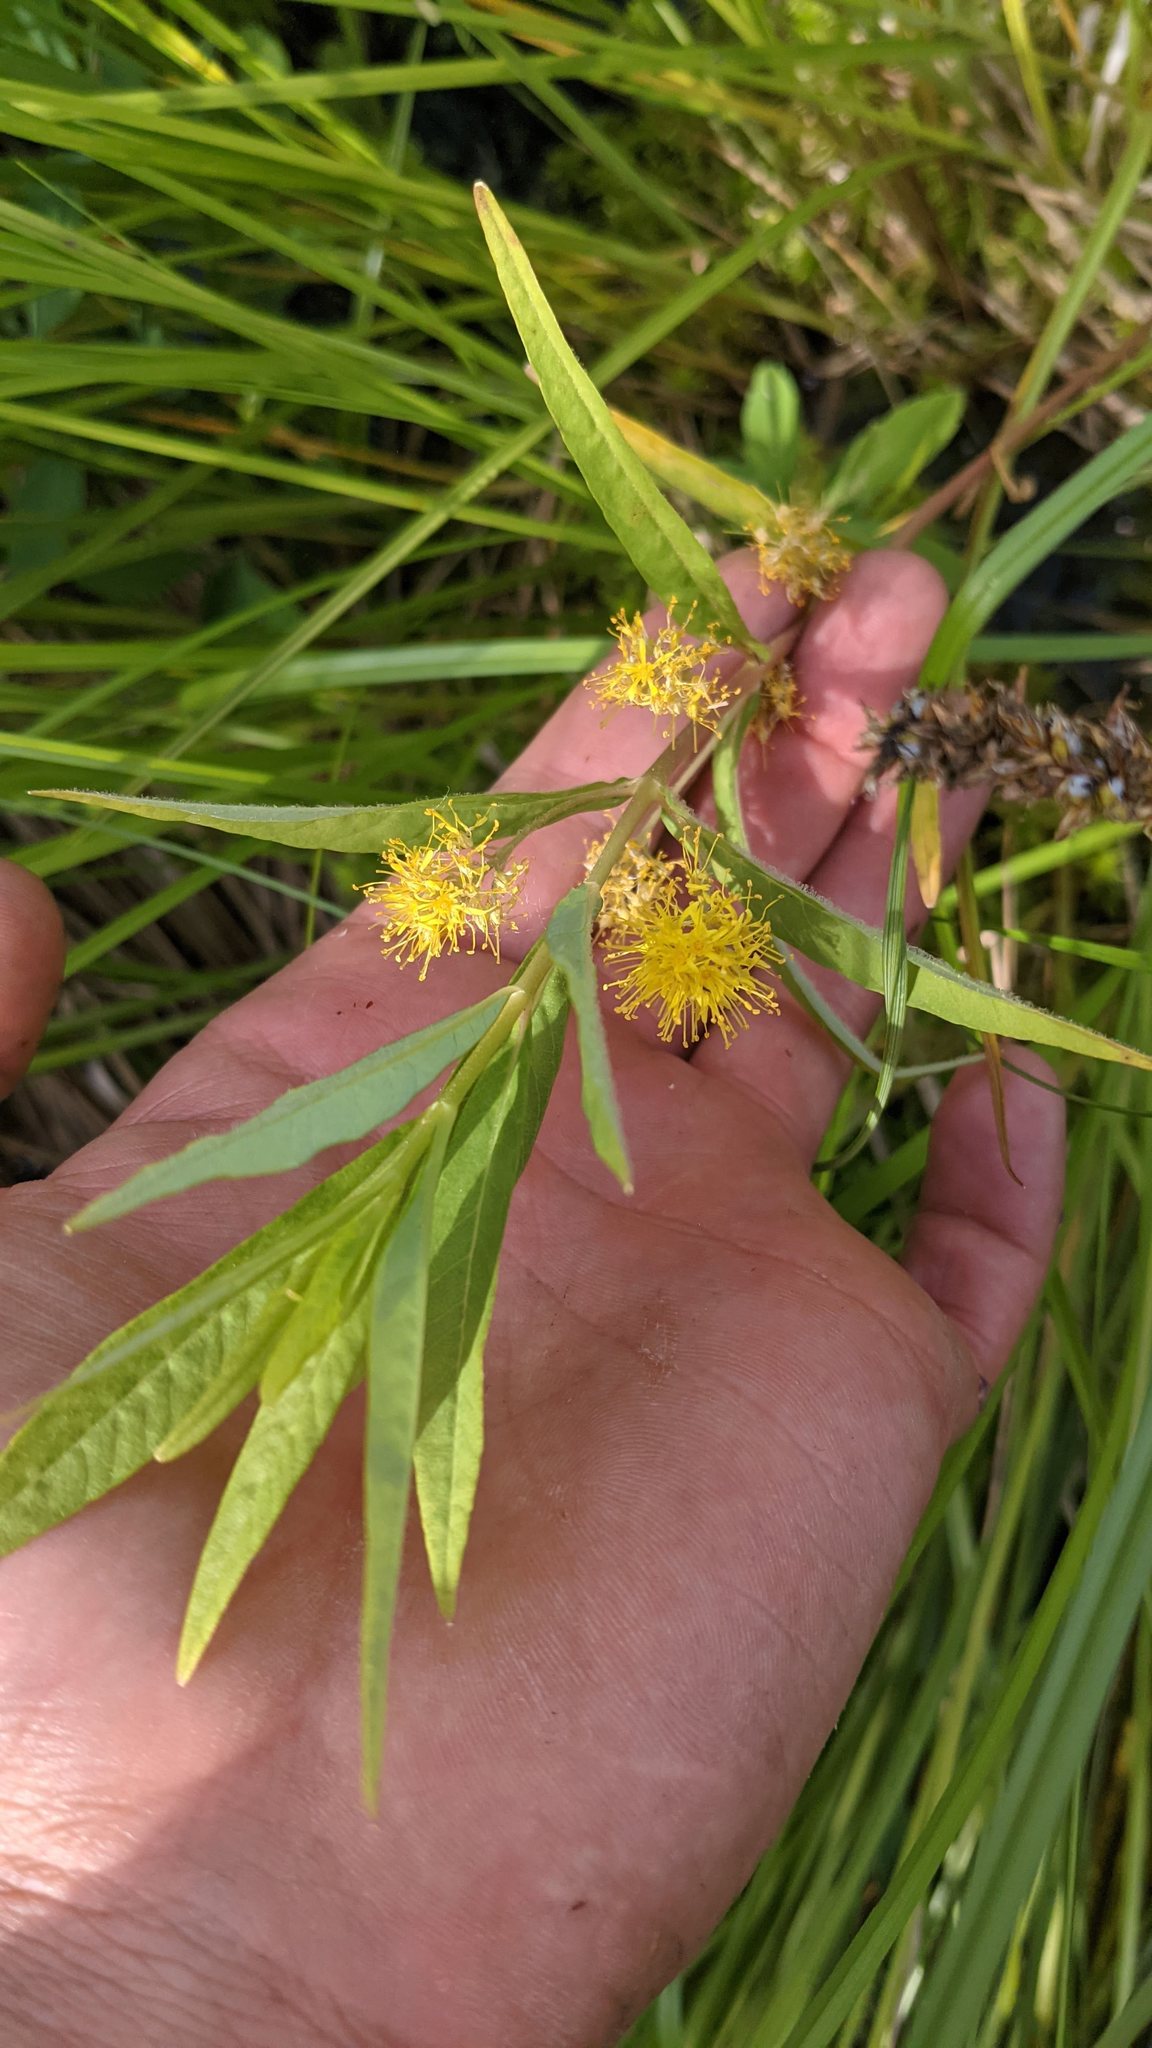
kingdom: Plantae
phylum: Tracheophyta
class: Magnoliopsida
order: Ericales
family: Primulaceae
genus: Lysimachia
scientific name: Lysimachia thyrsiflora
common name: Tufted loosestrife
